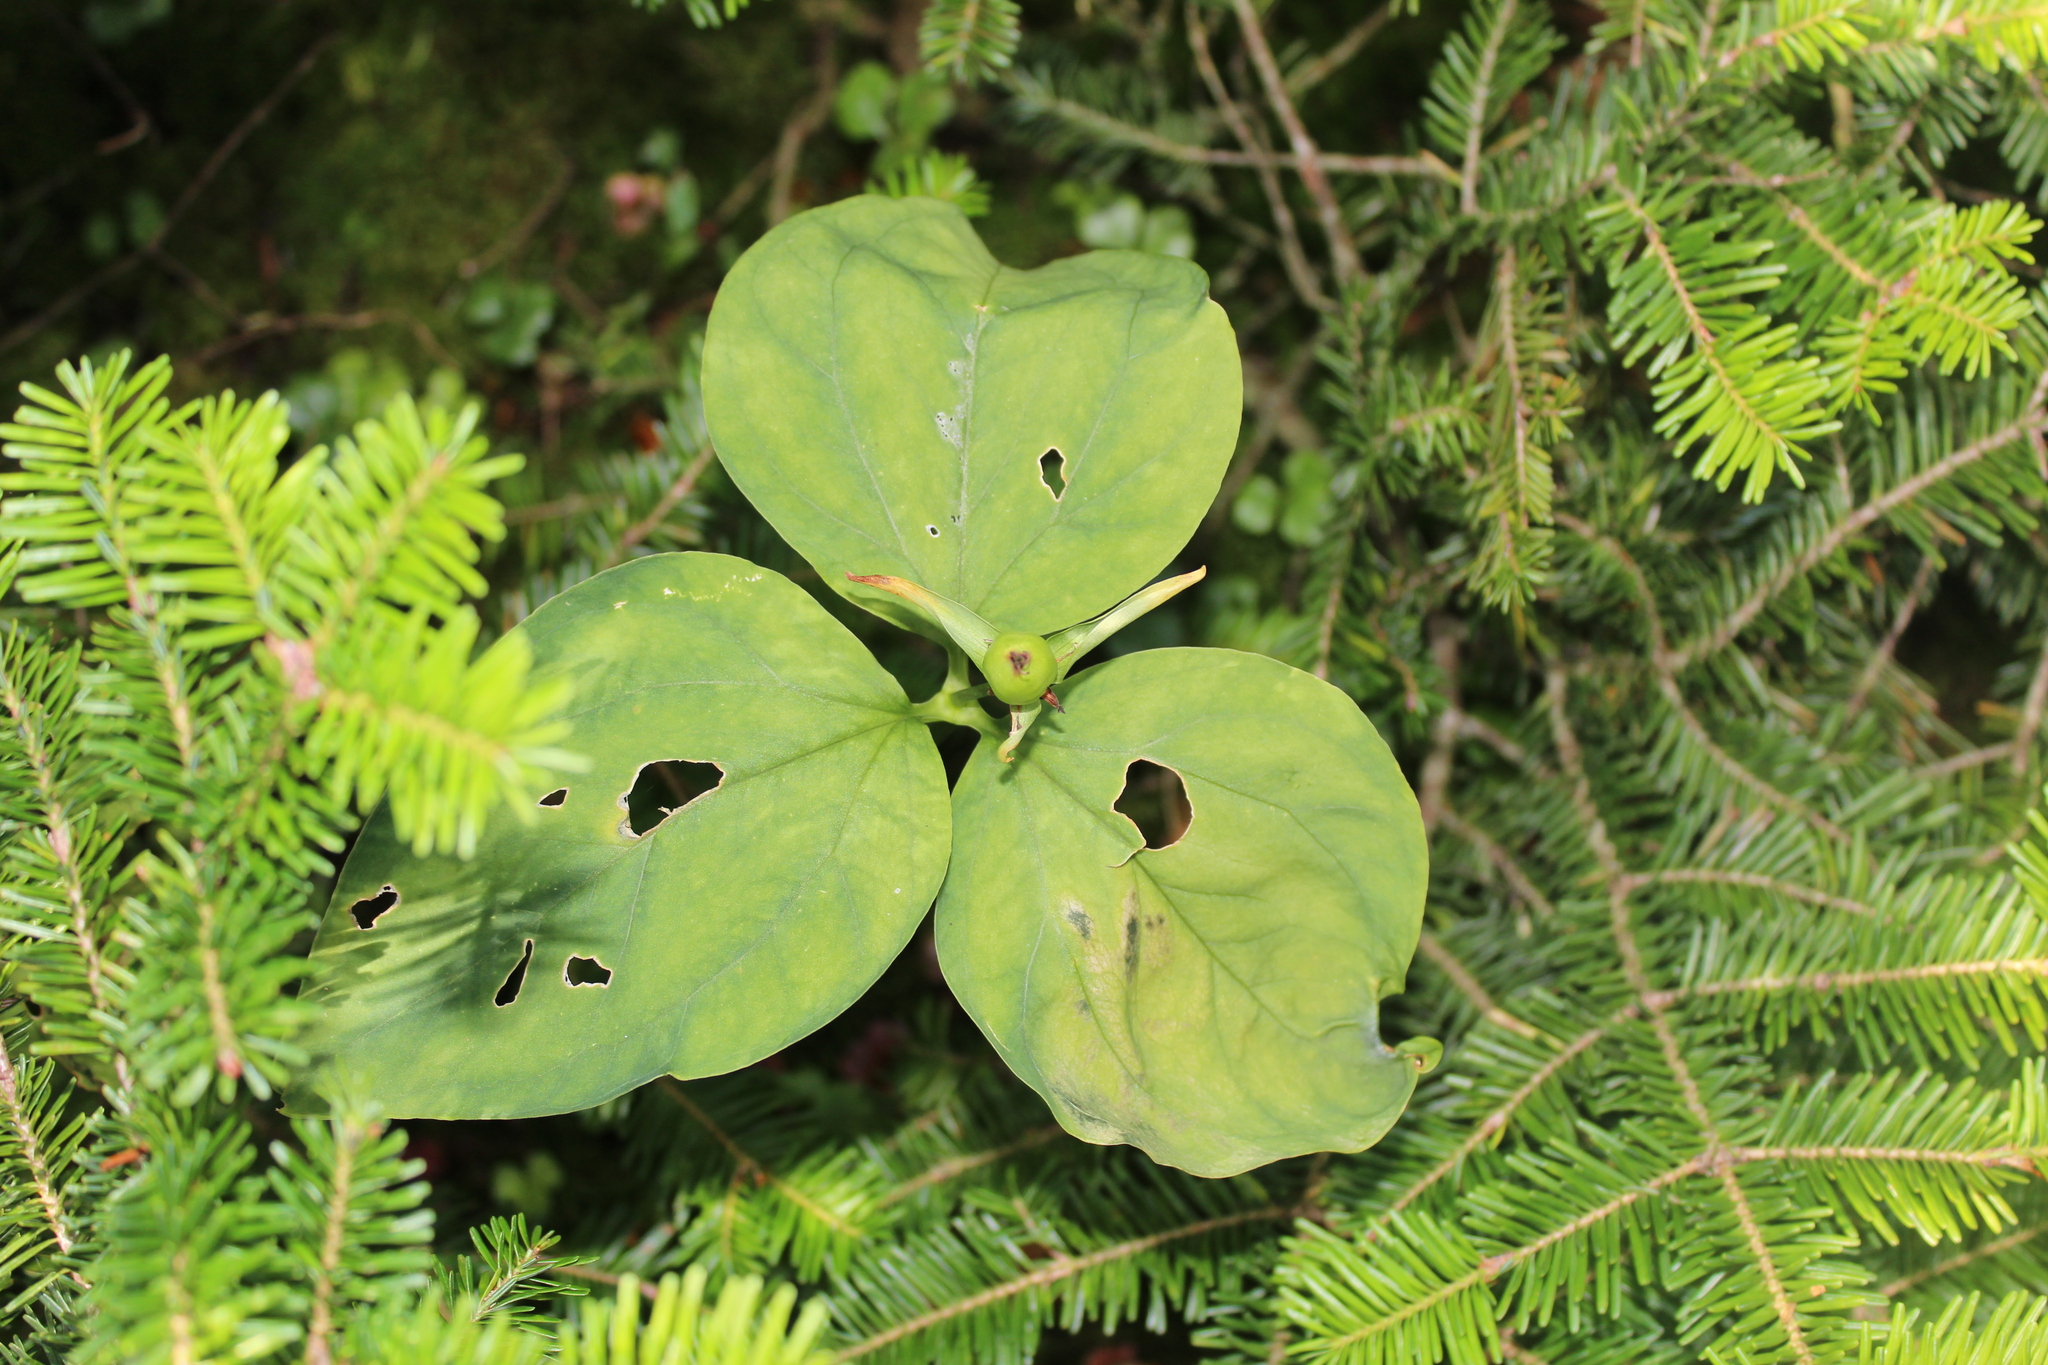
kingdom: Plantae
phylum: Tracheophyta
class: Liliopsida
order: Liliales
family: Melanthiaceae
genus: Trillium
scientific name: Trillium undulatum
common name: Paint trillium
